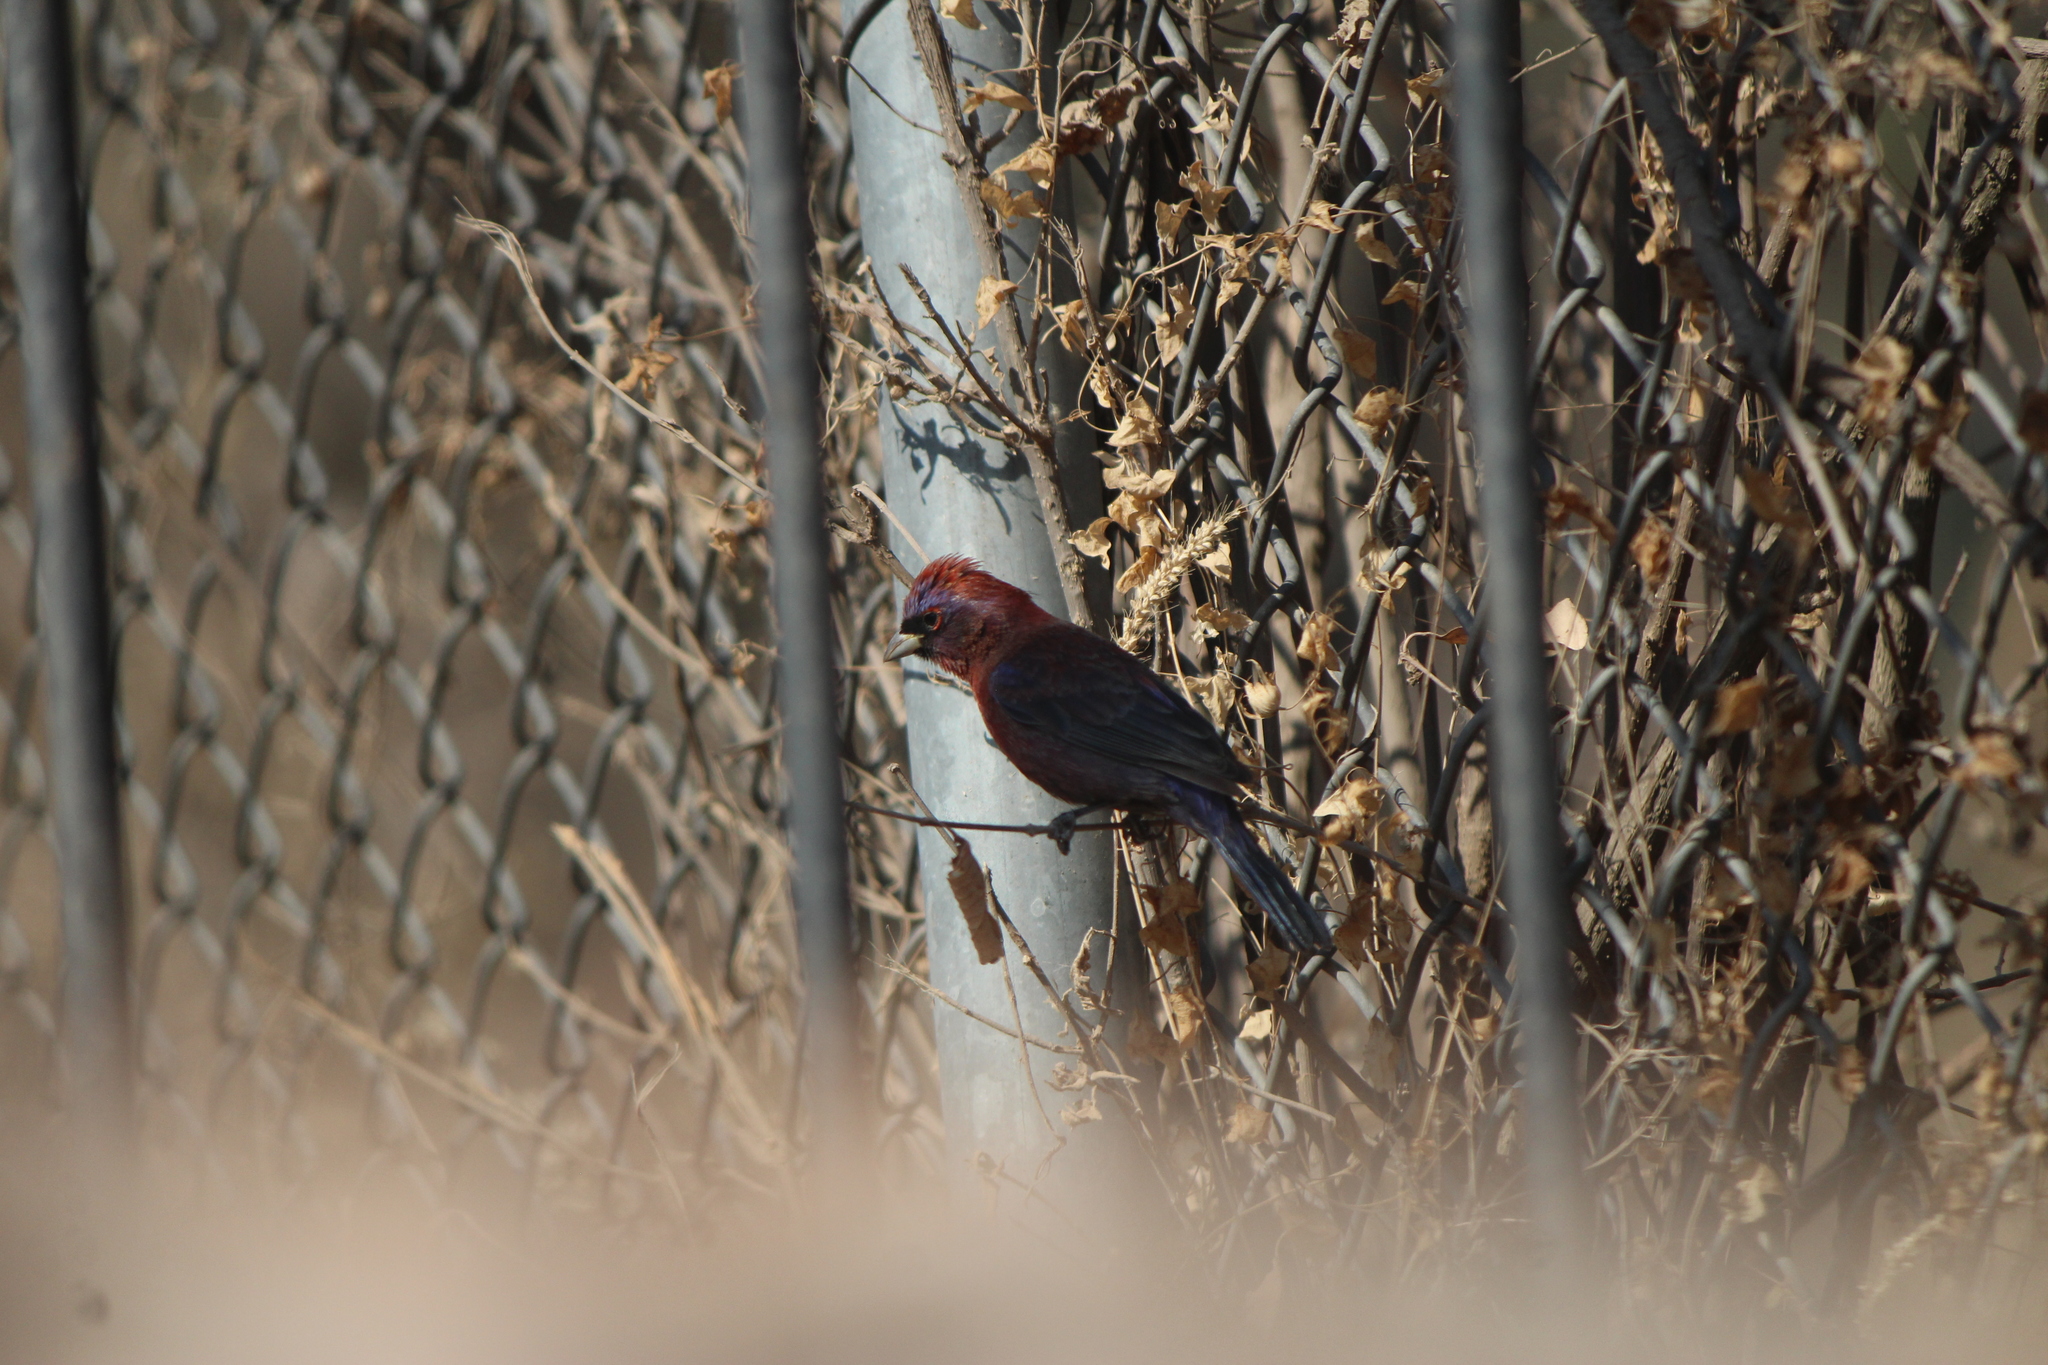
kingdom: Animalia
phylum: Chordata
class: Aves
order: Passeriformes
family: Cardinalidae
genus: Passerina
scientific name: Passerina versicolor
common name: Varied bunting
